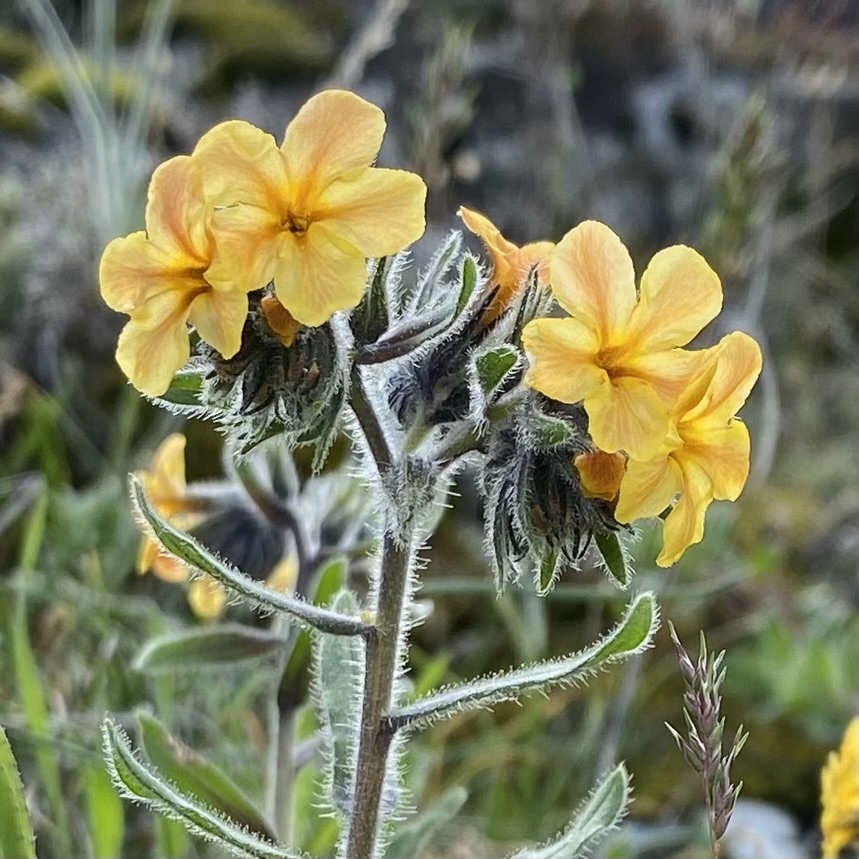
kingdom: Plantae
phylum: Tracheophyta
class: Magnoliopsida
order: Boraginales
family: Boraginaceae
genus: Alkanna
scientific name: Alkanna stribrnyi
